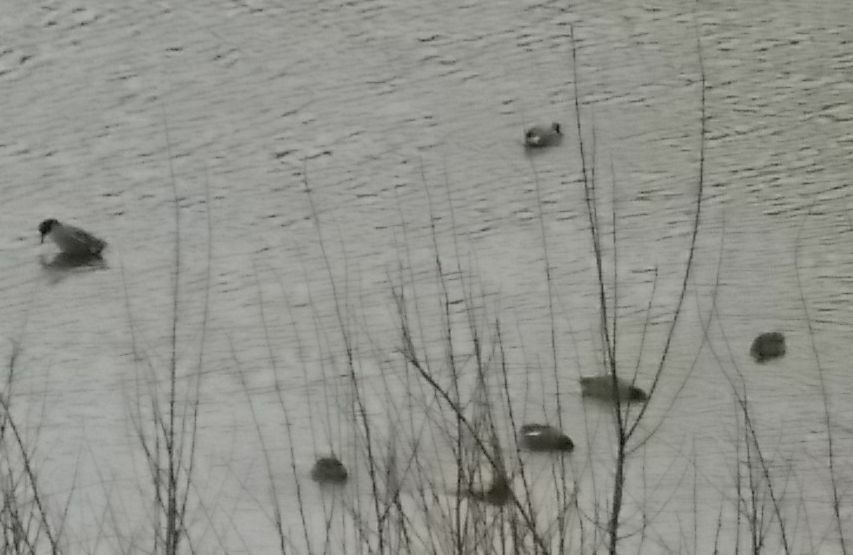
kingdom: Animalia
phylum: Chordata
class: Aves
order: Anseriformes
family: Anatidae
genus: Anas
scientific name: Anas crecca
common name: Eurasian teal
